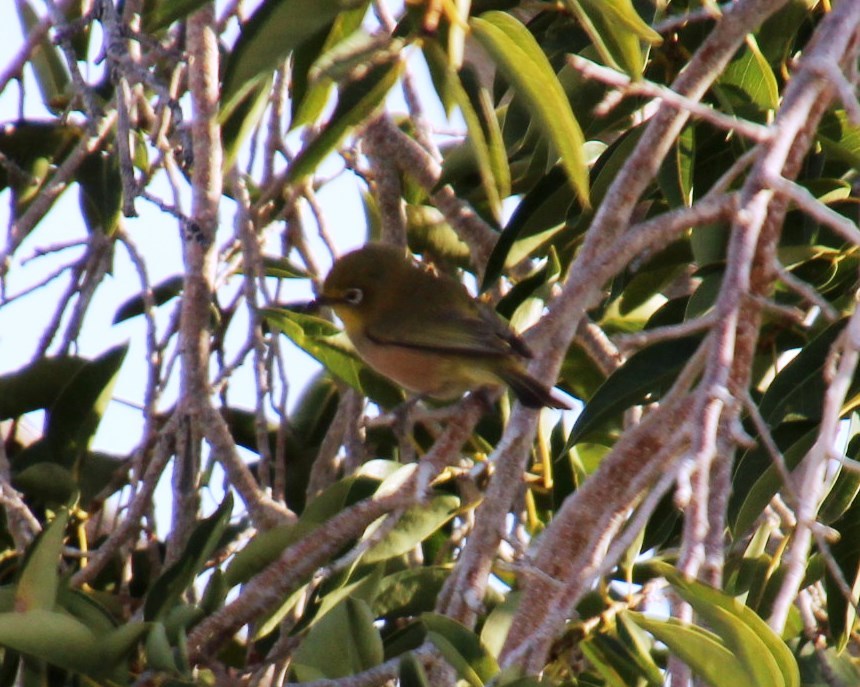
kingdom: Animalia
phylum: Chordata
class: Aves
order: Passeriformes
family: Zosteropidae
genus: Zosterops
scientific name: Zosterops pallidus
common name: Orange river white-eye
